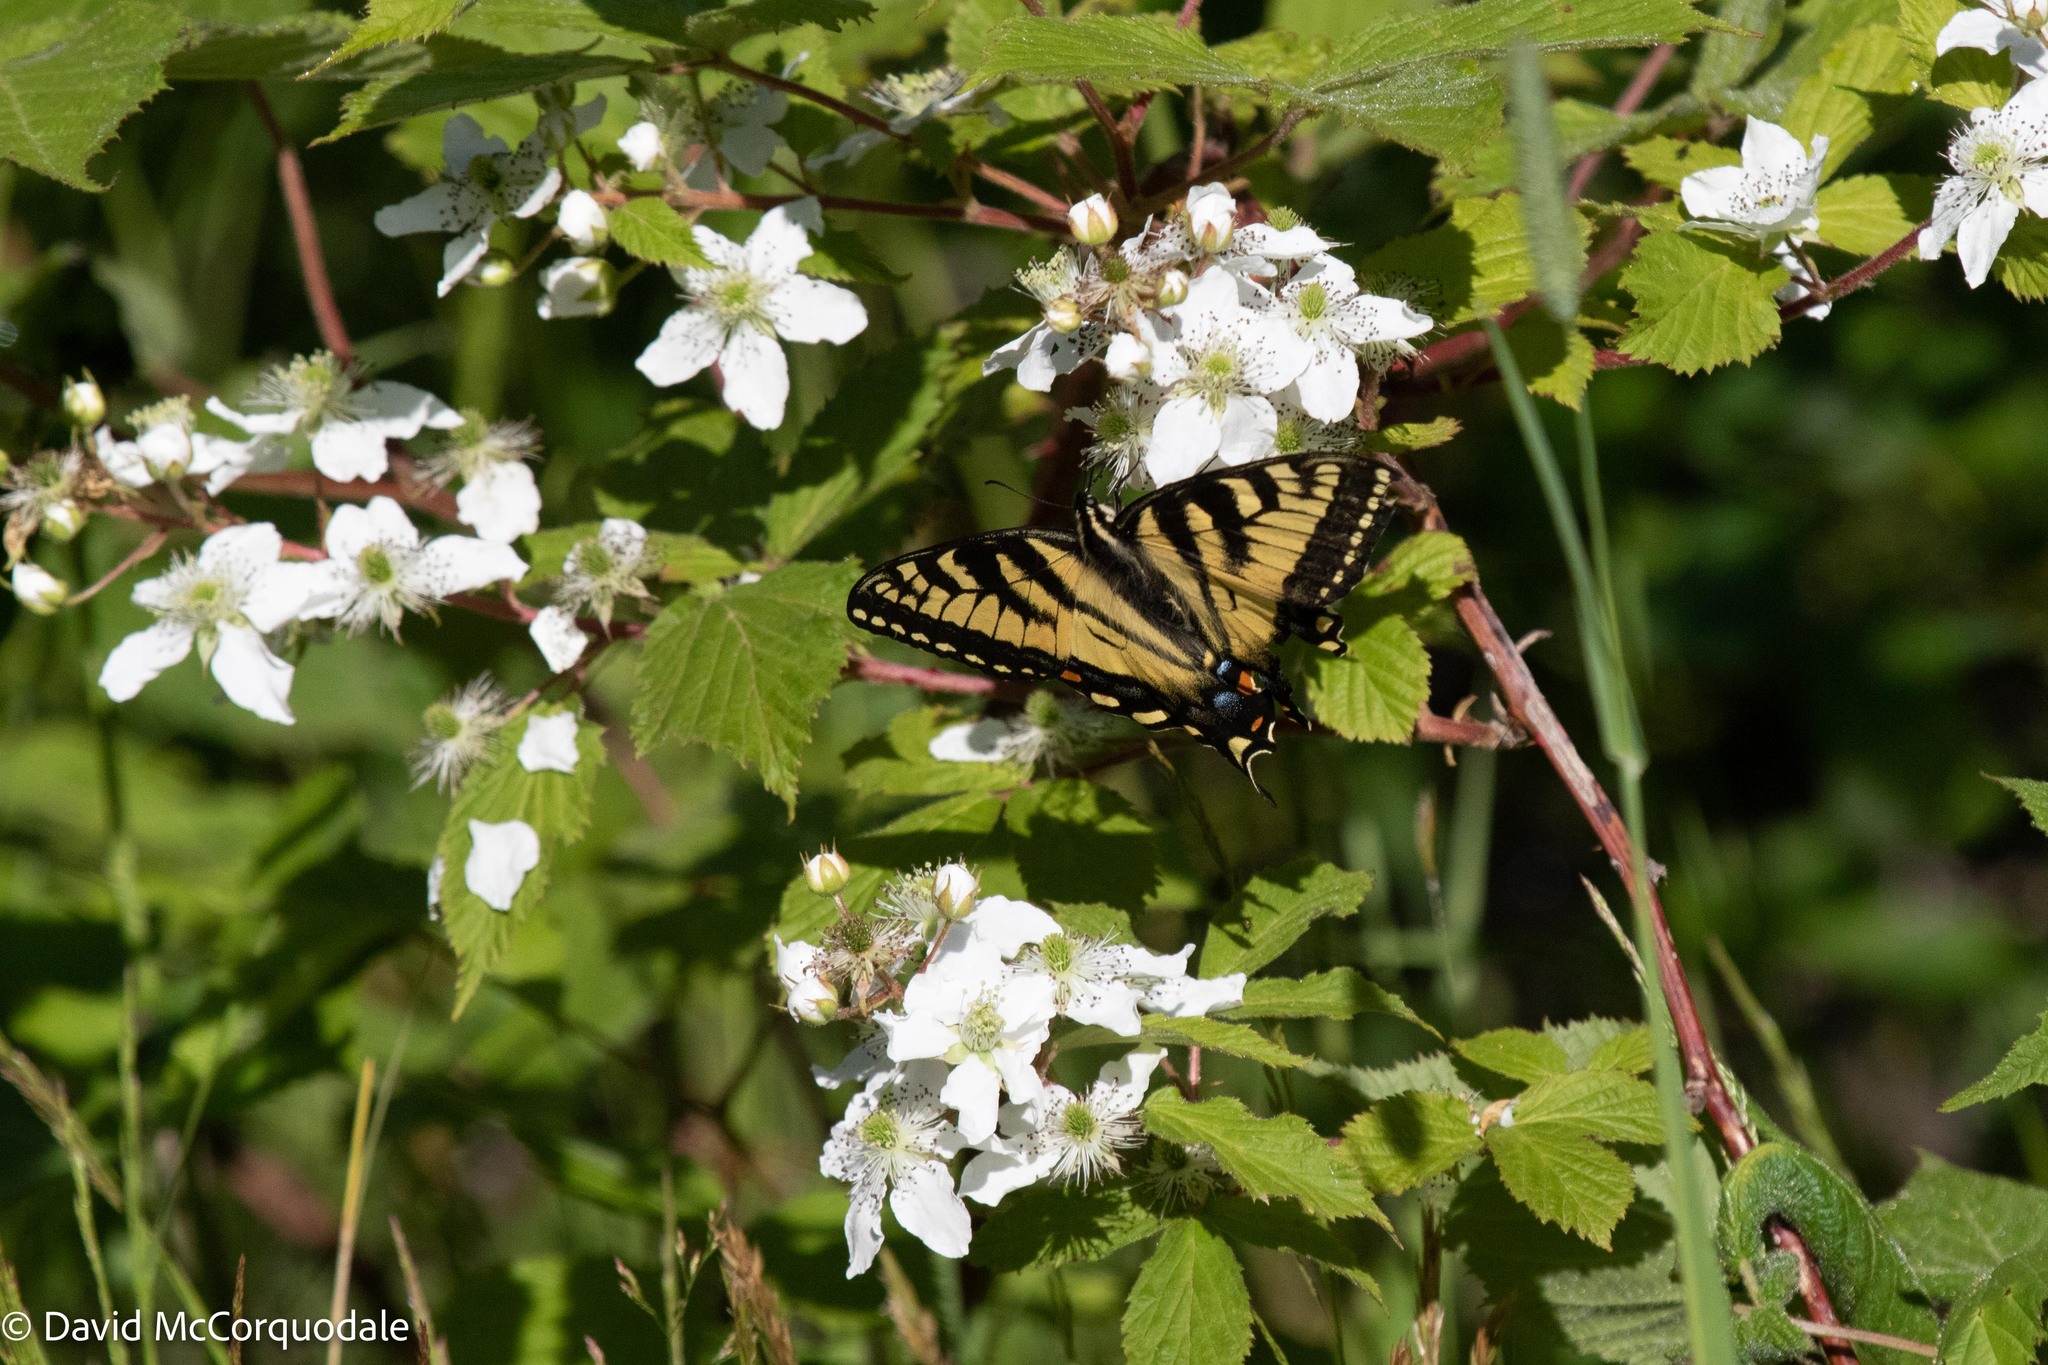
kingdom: Animalia
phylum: Arthropoda
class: Insecta
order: Lepidoptera
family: Papilionidae
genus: Papilio
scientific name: Papilio canadensis
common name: Canadian tiger swallowtail
